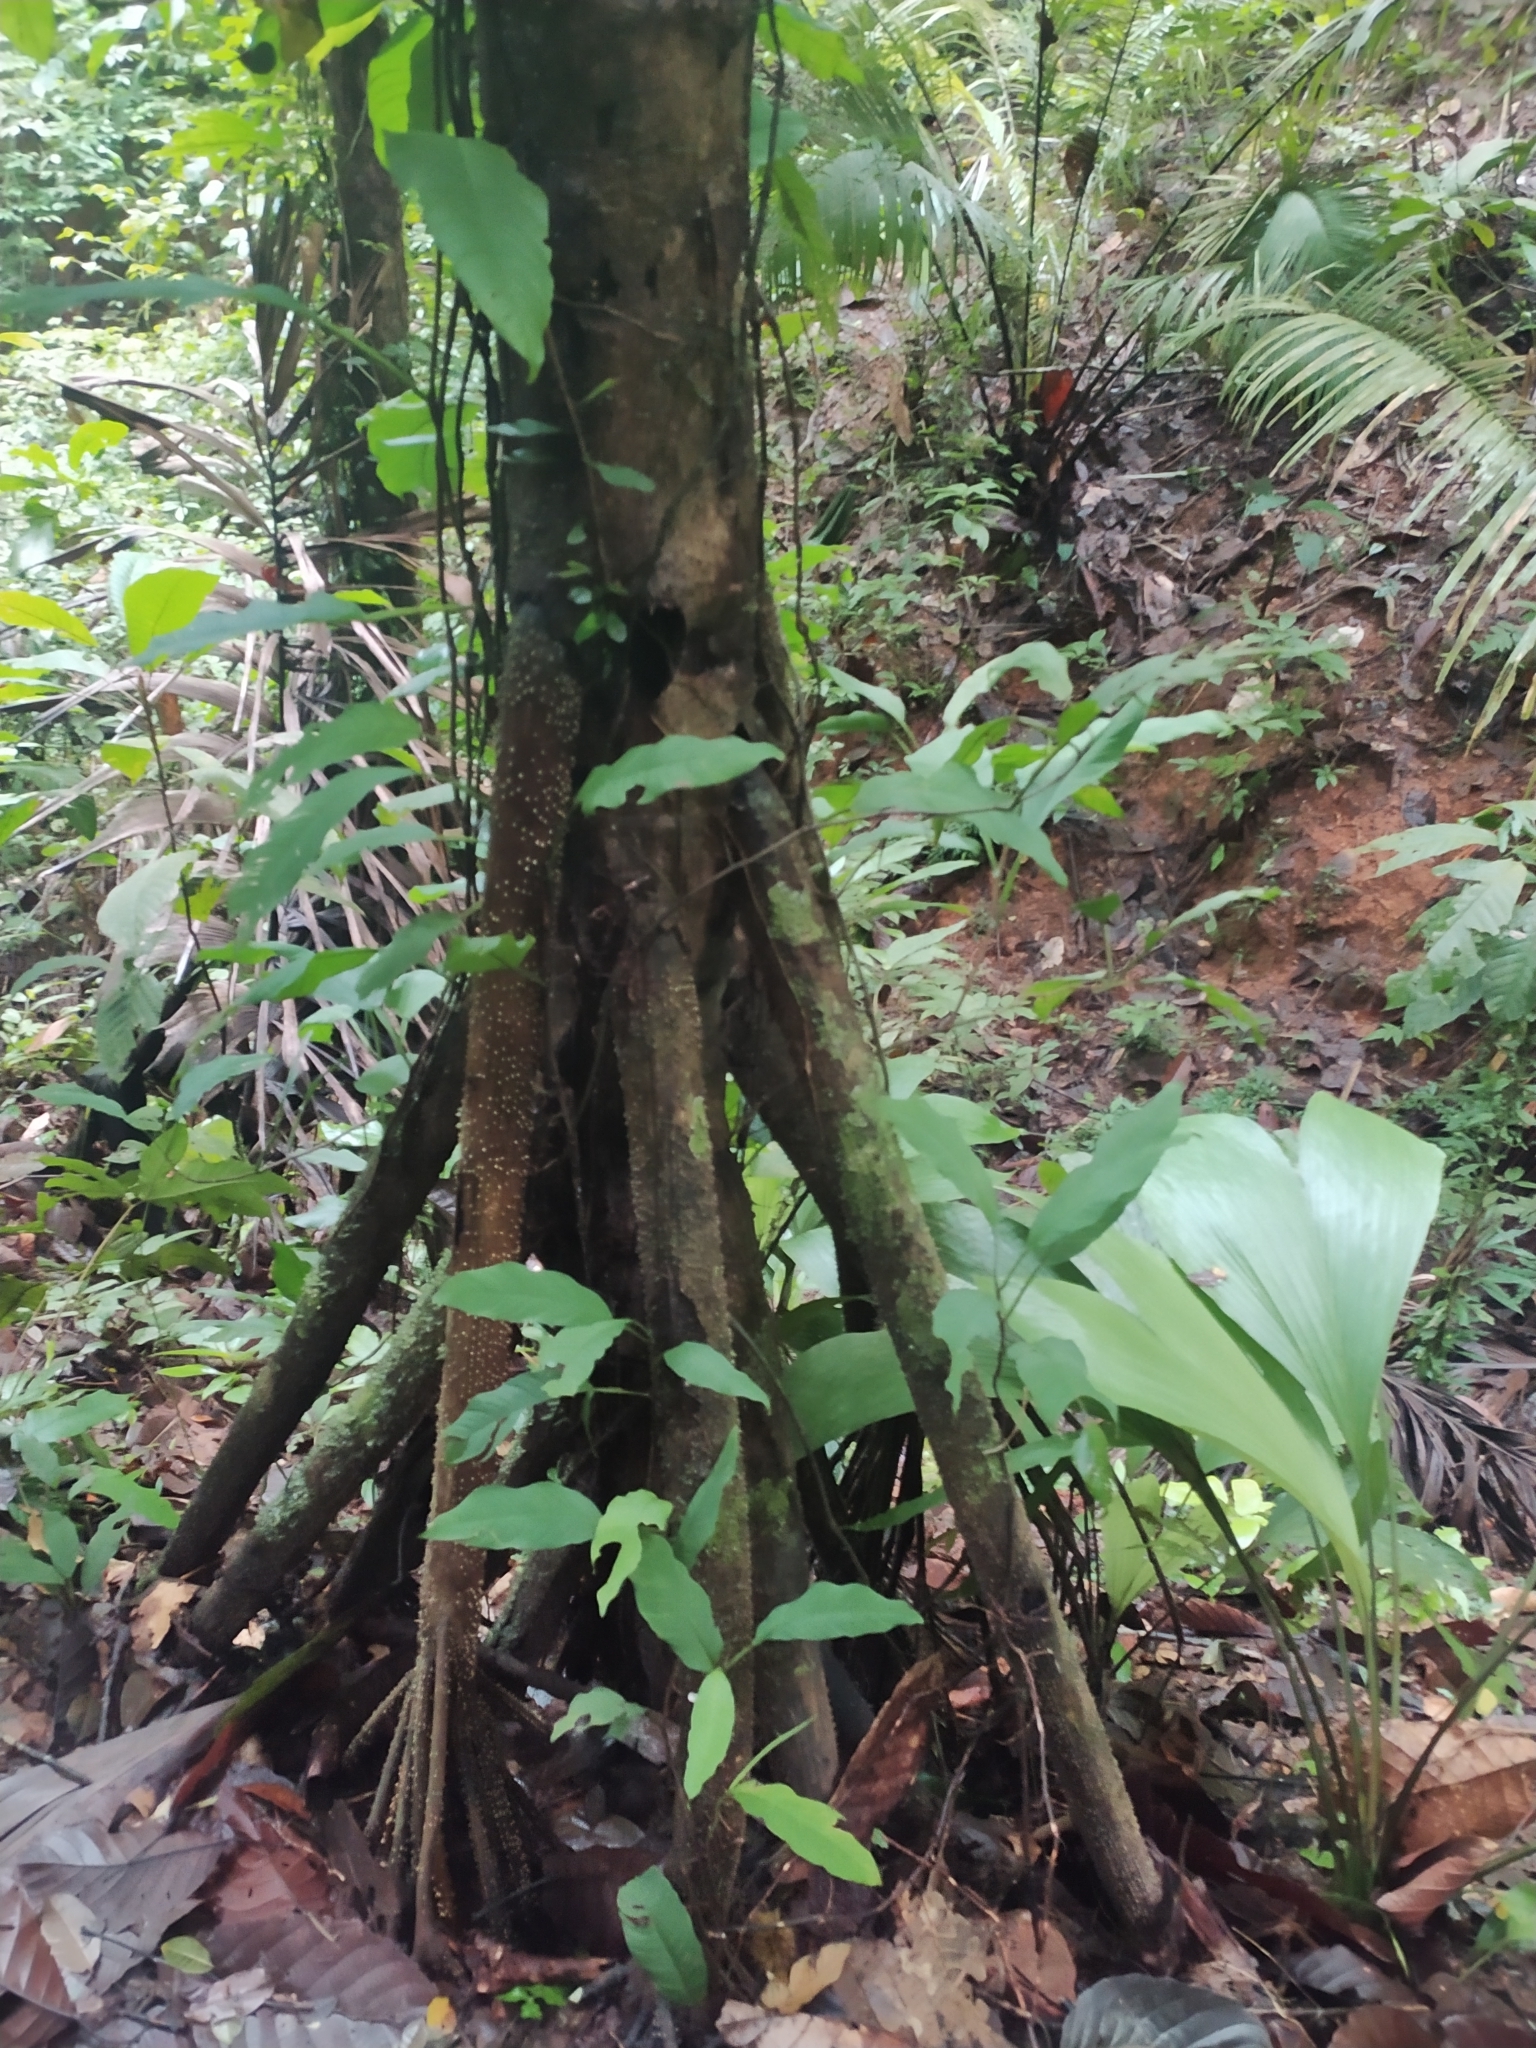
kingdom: Plantae
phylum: Tracheophyta
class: Liliopsida
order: Arecales
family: Arecaceae
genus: Socratea
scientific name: Socratea exorrhiza
